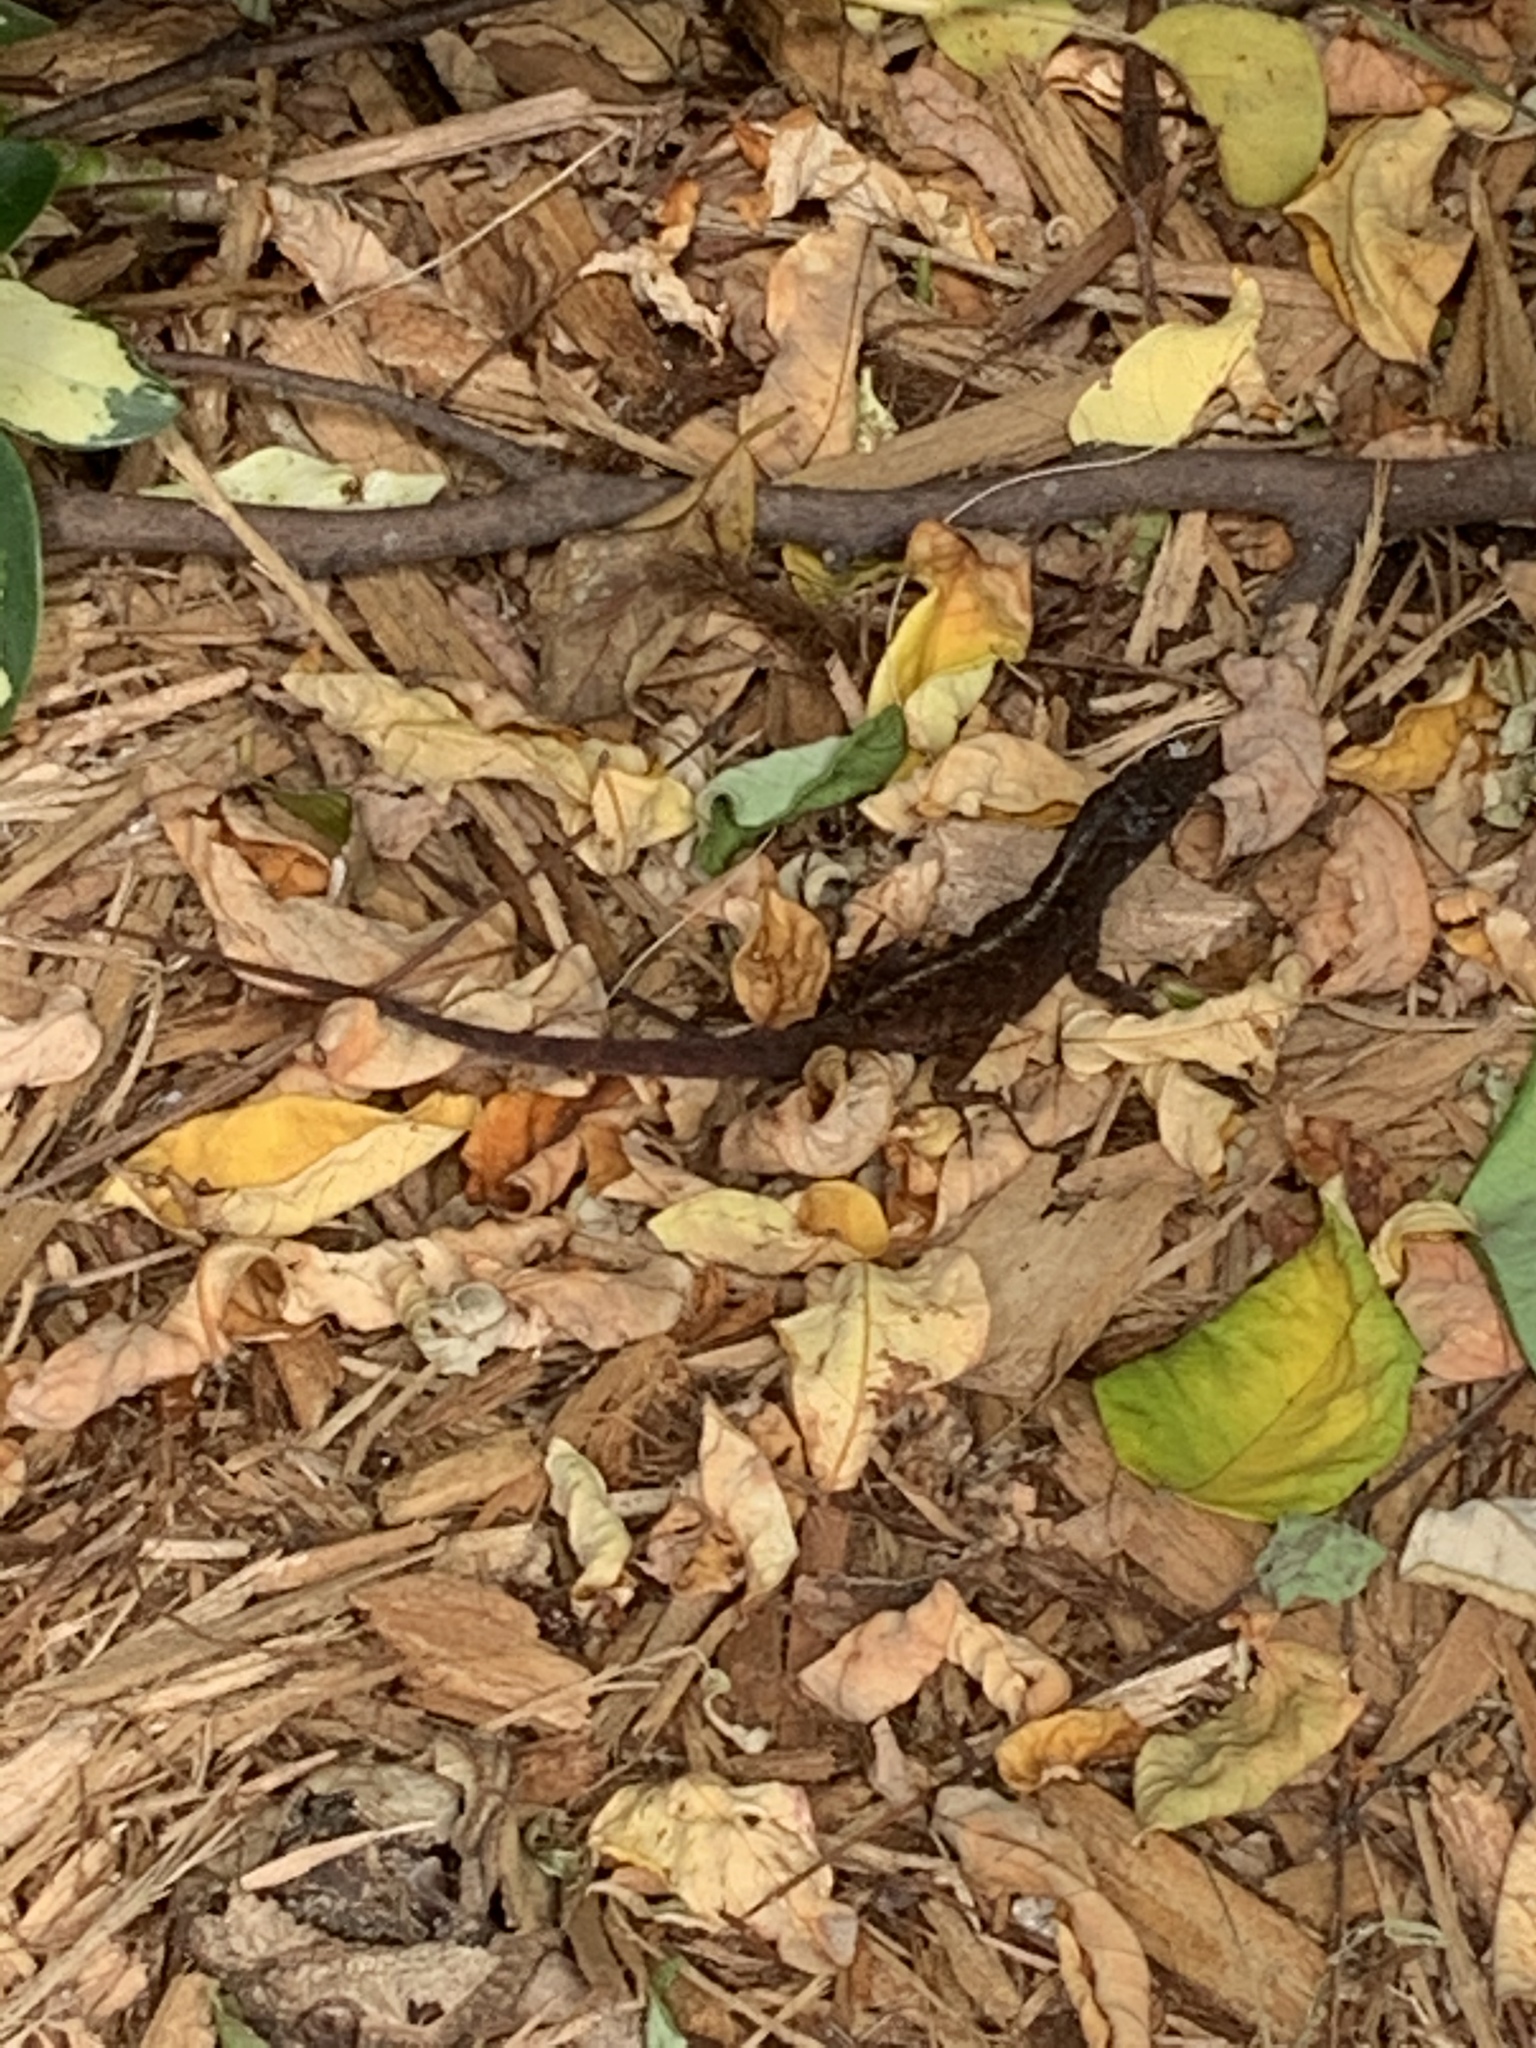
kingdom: Animalia
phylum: Chordata
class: Squamata
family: Dactyloidae
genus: Anolis
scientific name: Anolis sagrei
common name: Brown anole
